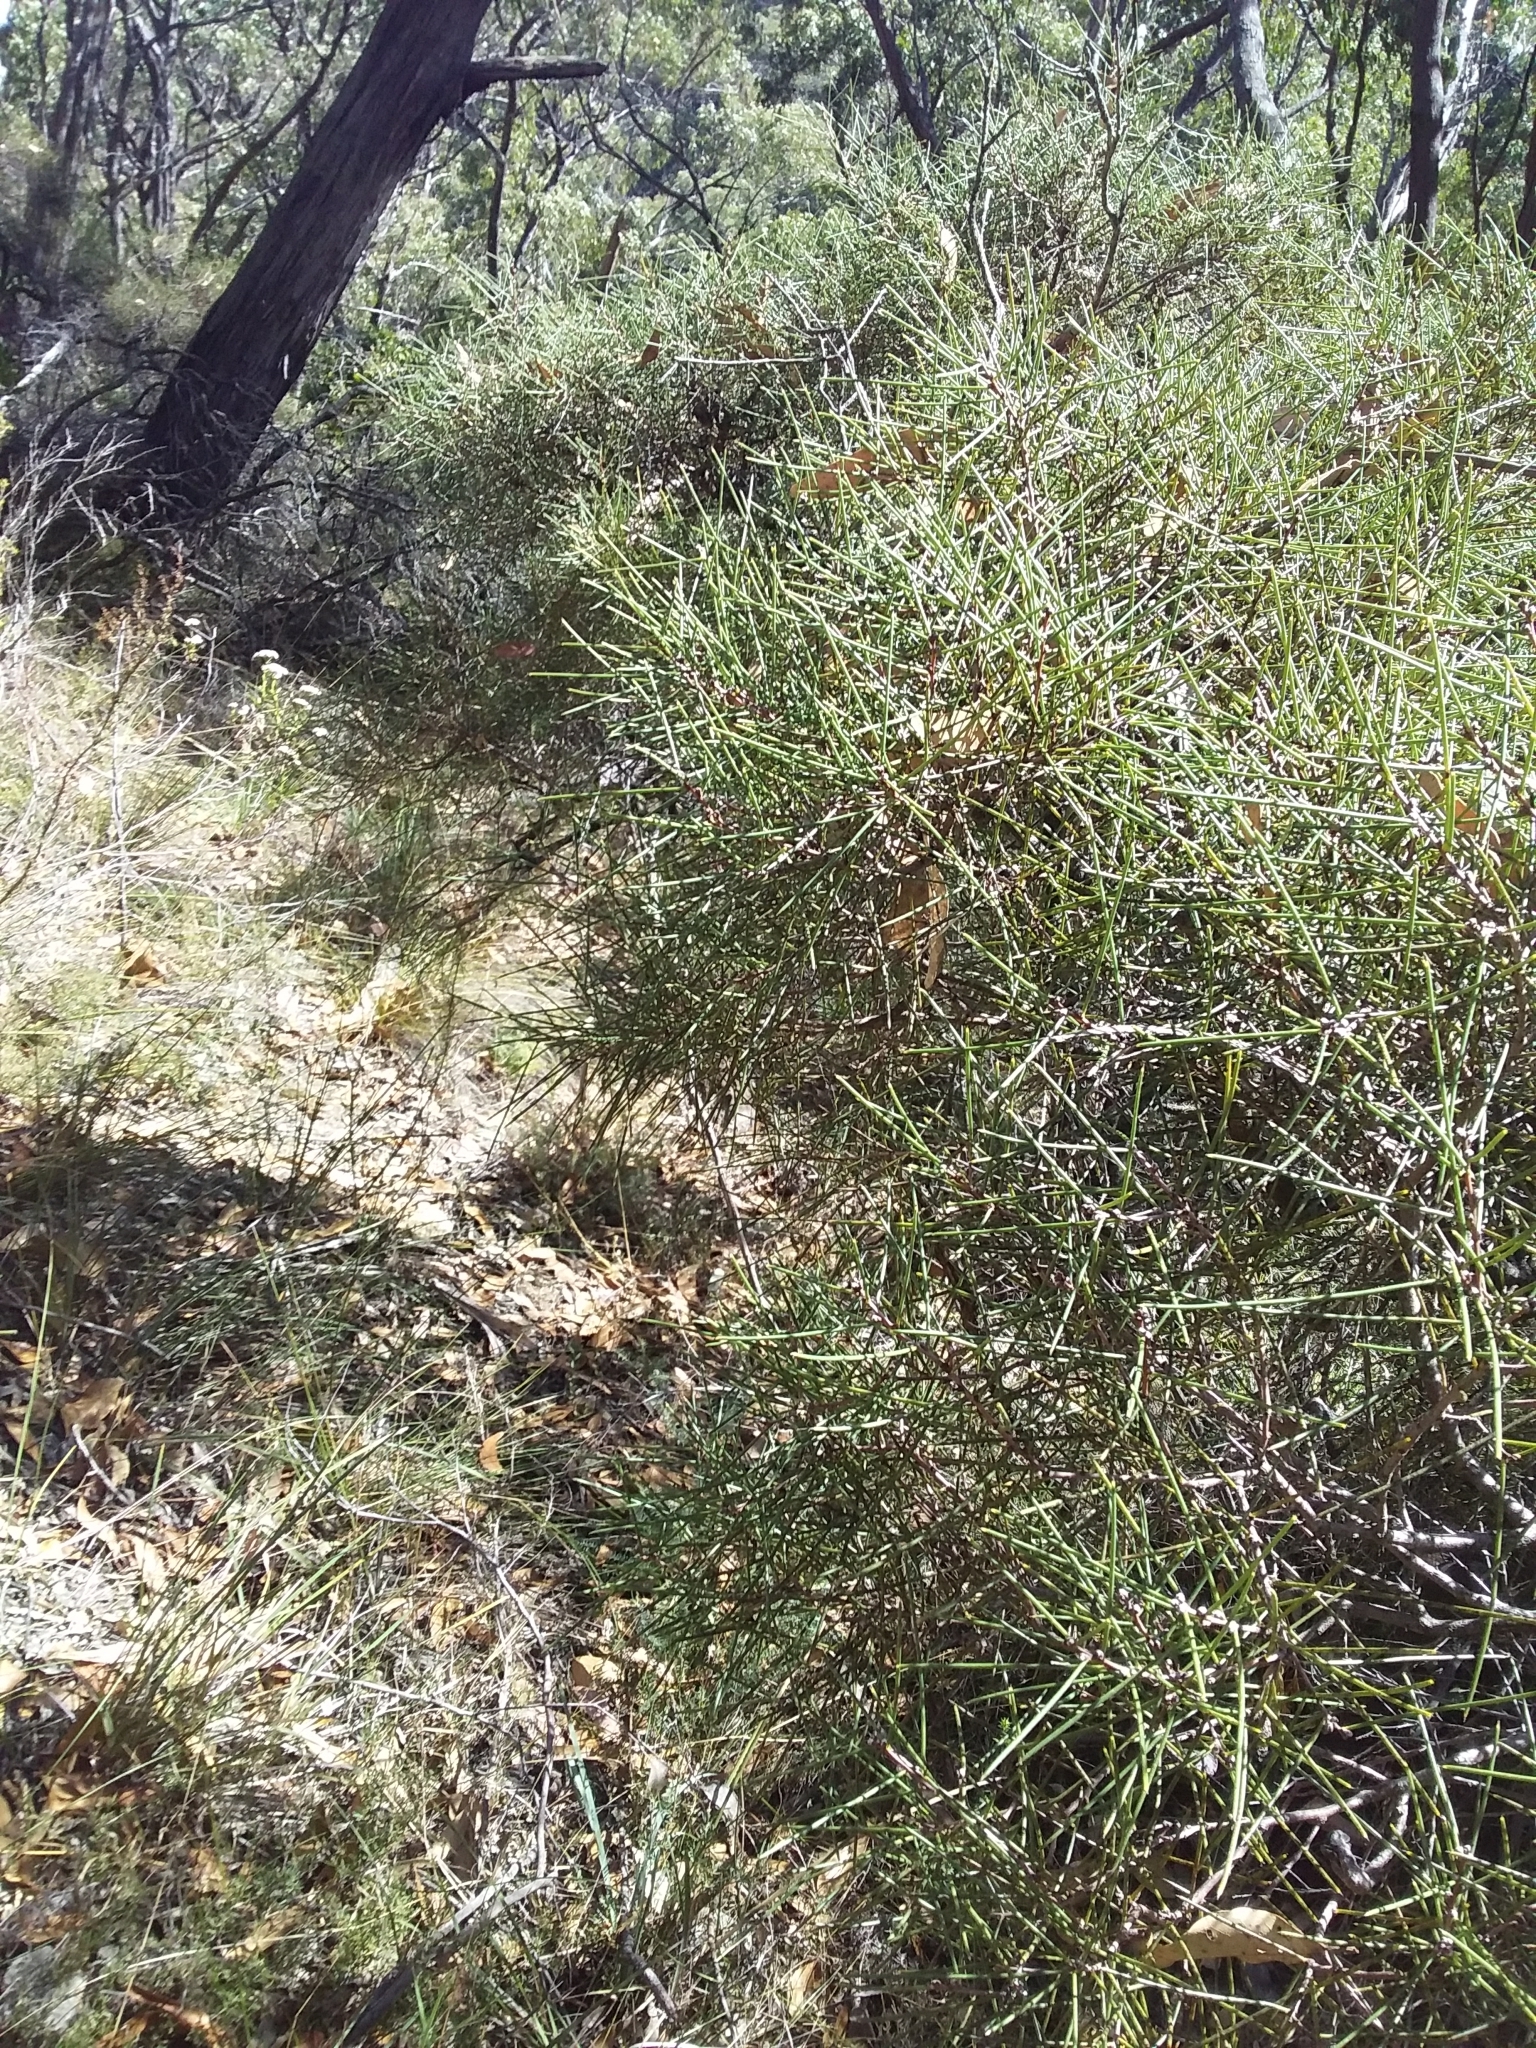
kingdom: Plantae
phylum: Tracheophyta
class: Magnoliopsida
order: Proteales
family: Proteaceae
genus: Hakea
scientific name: Hakea rostrata
